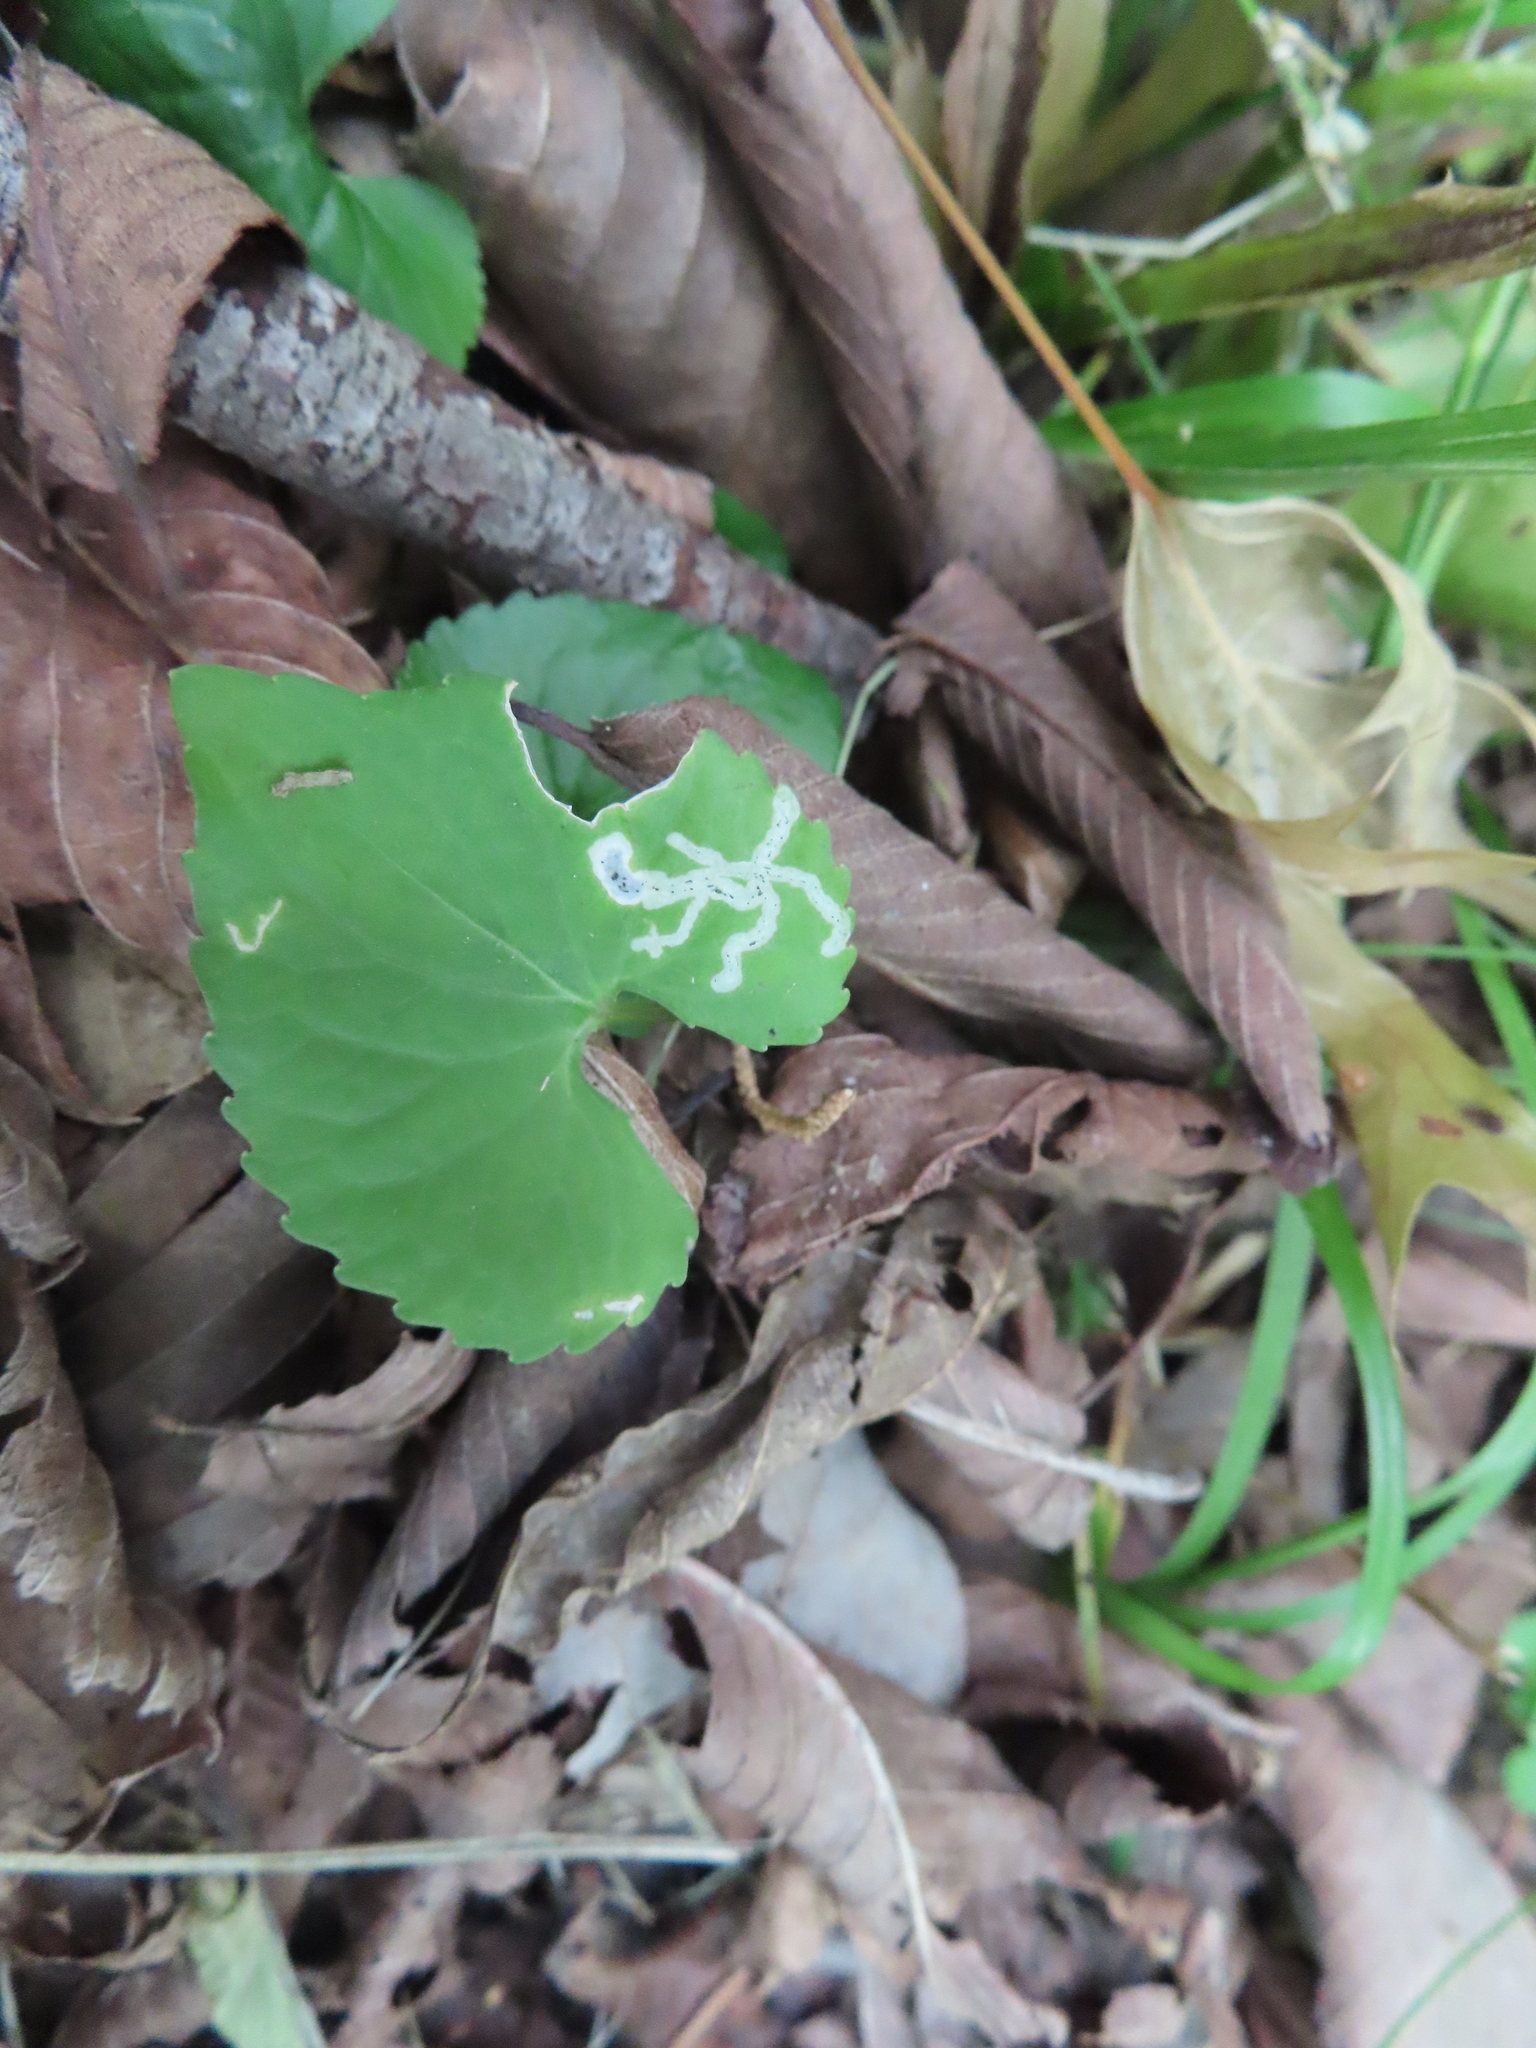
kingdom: Animalia
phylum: Arthropoda
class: Insecta
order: Diptera
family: Agromyzidae
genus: Liriomyza
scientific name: Liriomyza violivora
